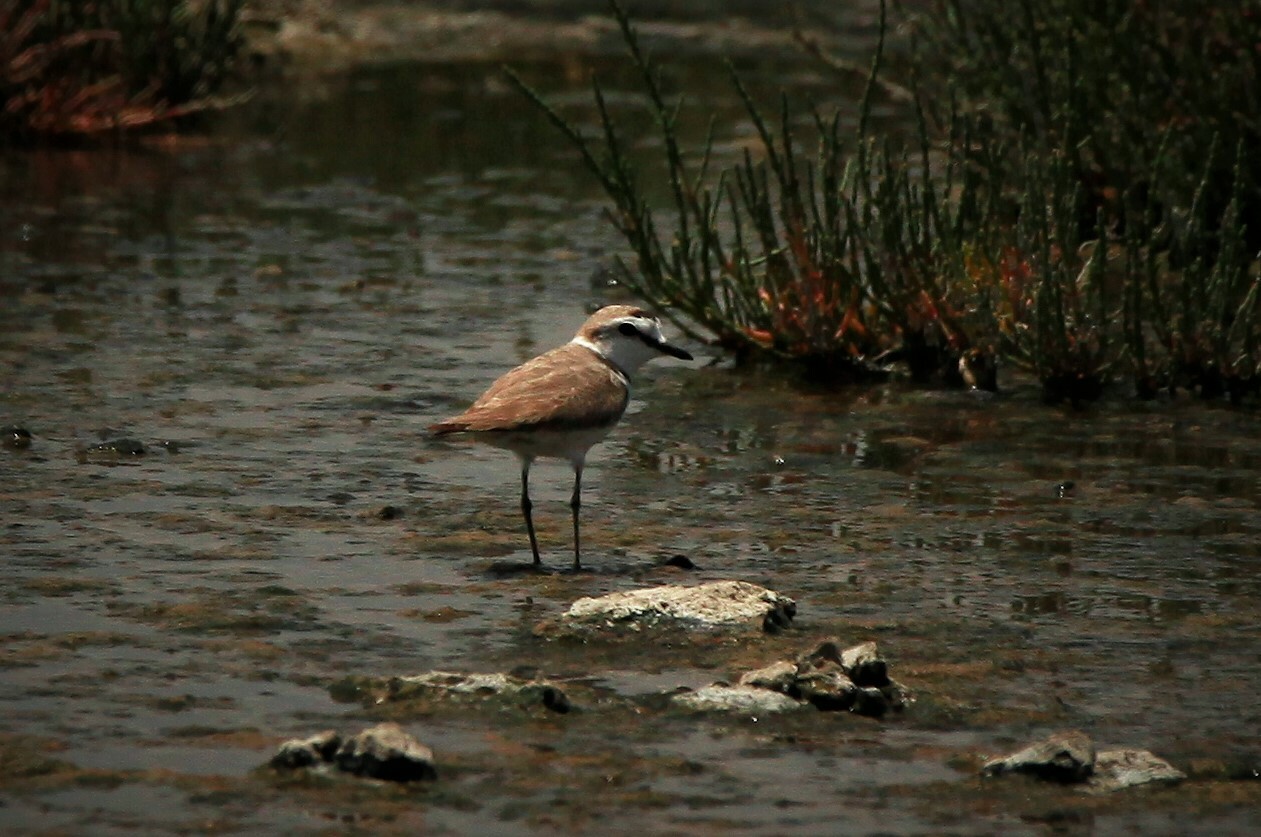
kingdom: Animalia
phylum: Chordata
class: Aves
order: Charadriiformes
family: Charadriidae
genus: Charadrius
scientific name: Charadrius alexandrinus
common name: Kentish plover
